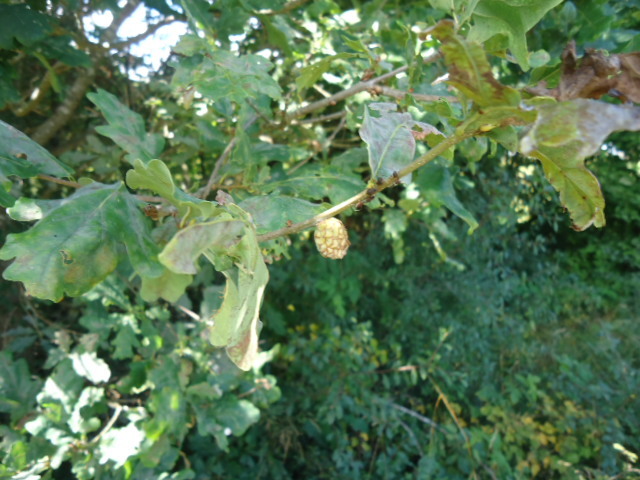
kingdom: Animalia
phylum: Arthropoda
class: Insecta
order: Hymenoptera
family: Cynipidae
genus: Andricus
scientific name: Andricus foecundatrix
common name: Artichoke gall
